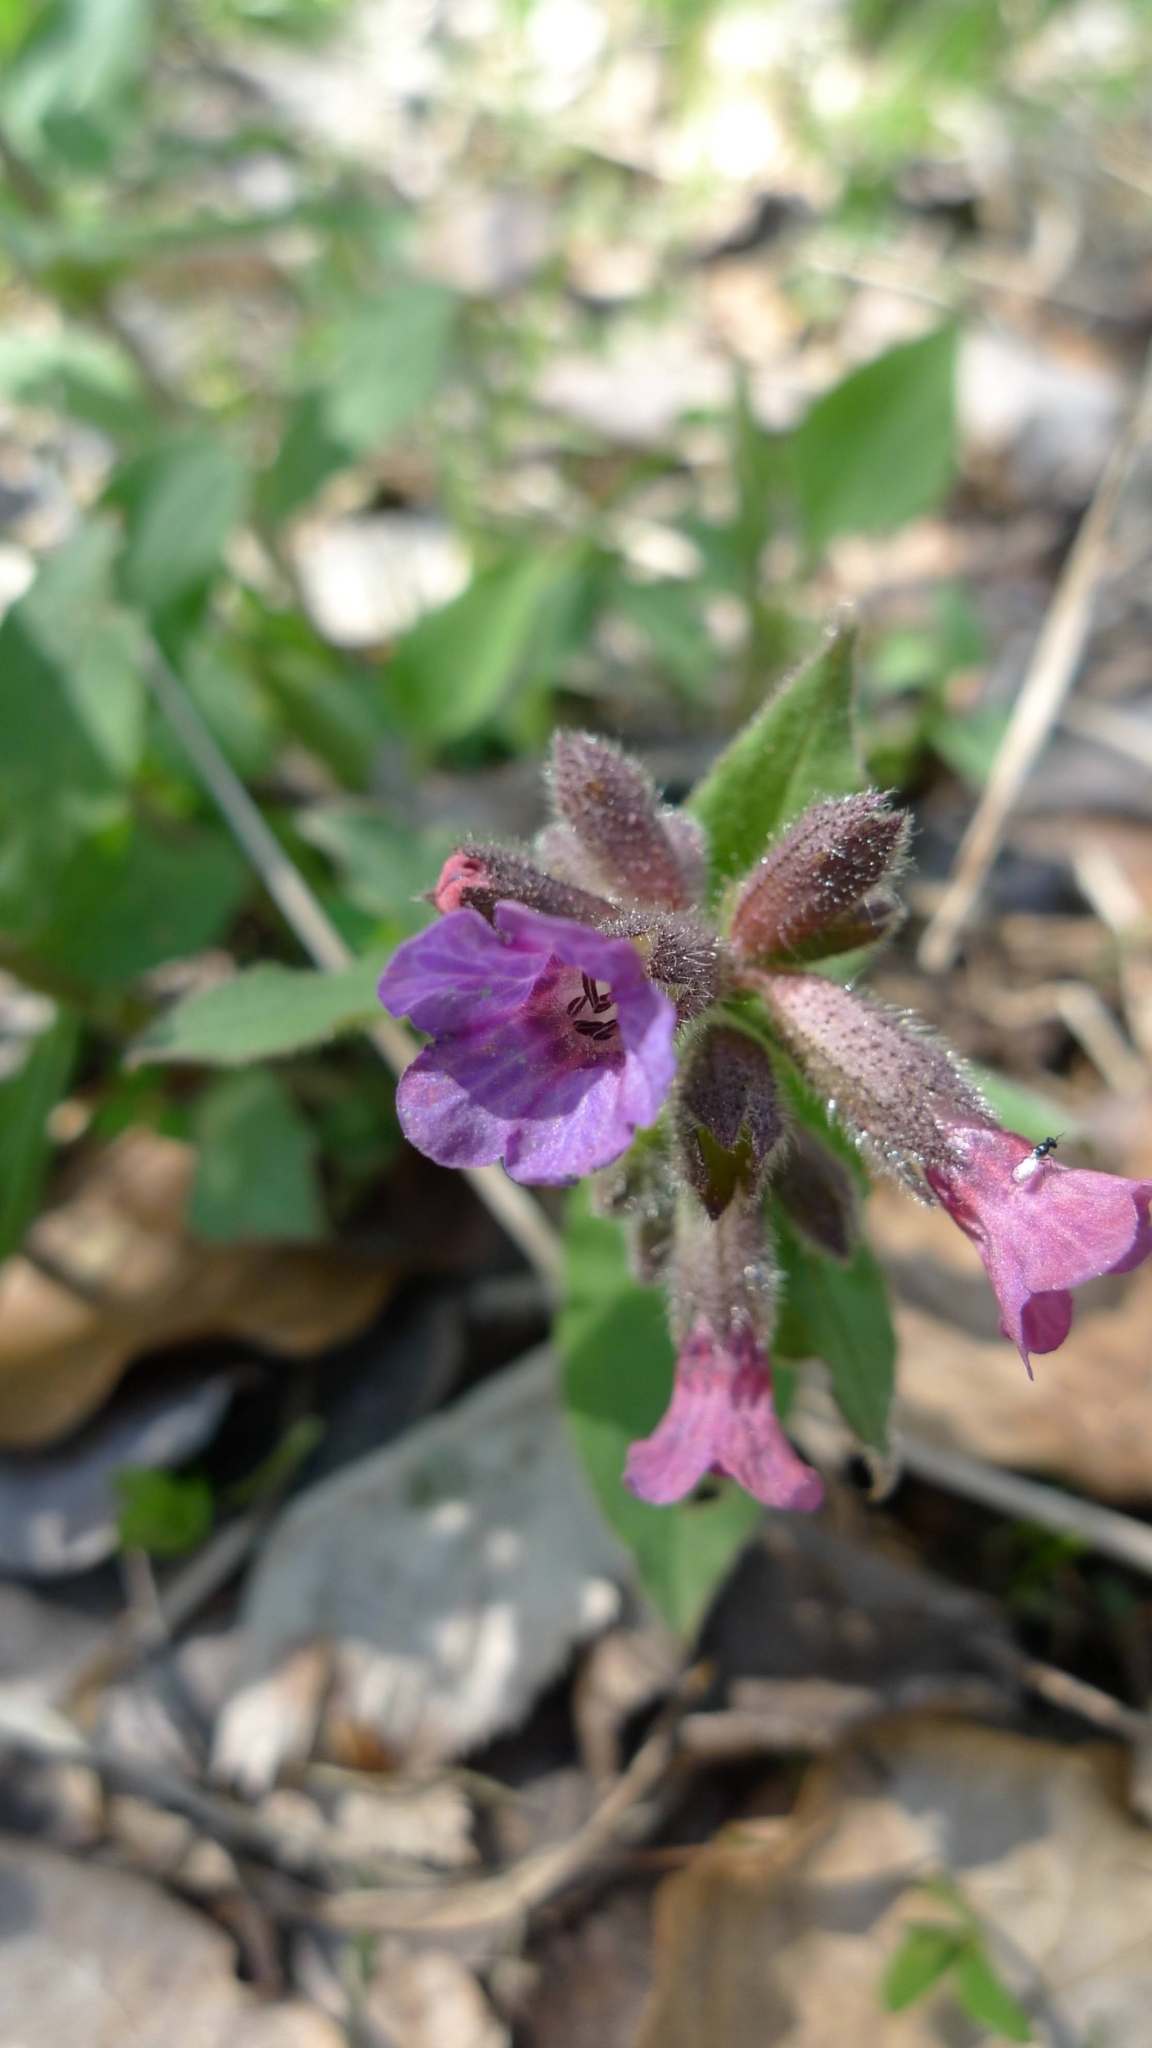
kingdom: Plantae
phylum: Tracheophyta
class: Magnoliopsida
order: Boraginales
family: Boraginaceae
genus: Pulmonaria
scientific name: Pulmonaria obscura
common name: Suffolk lungwort
